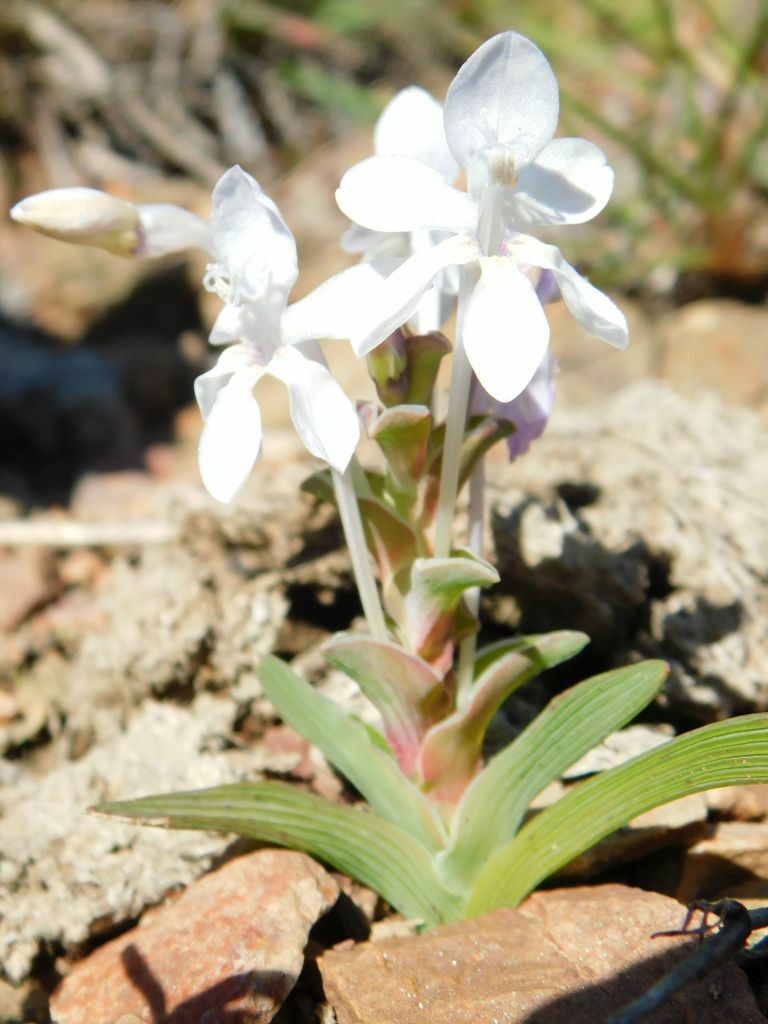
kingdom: Plantae
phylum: Tracheophyta
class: Liliopsida
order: Asparagales
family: Iridaceae
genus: Lapeirousia
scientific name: Lapeirousia pyramidalis
